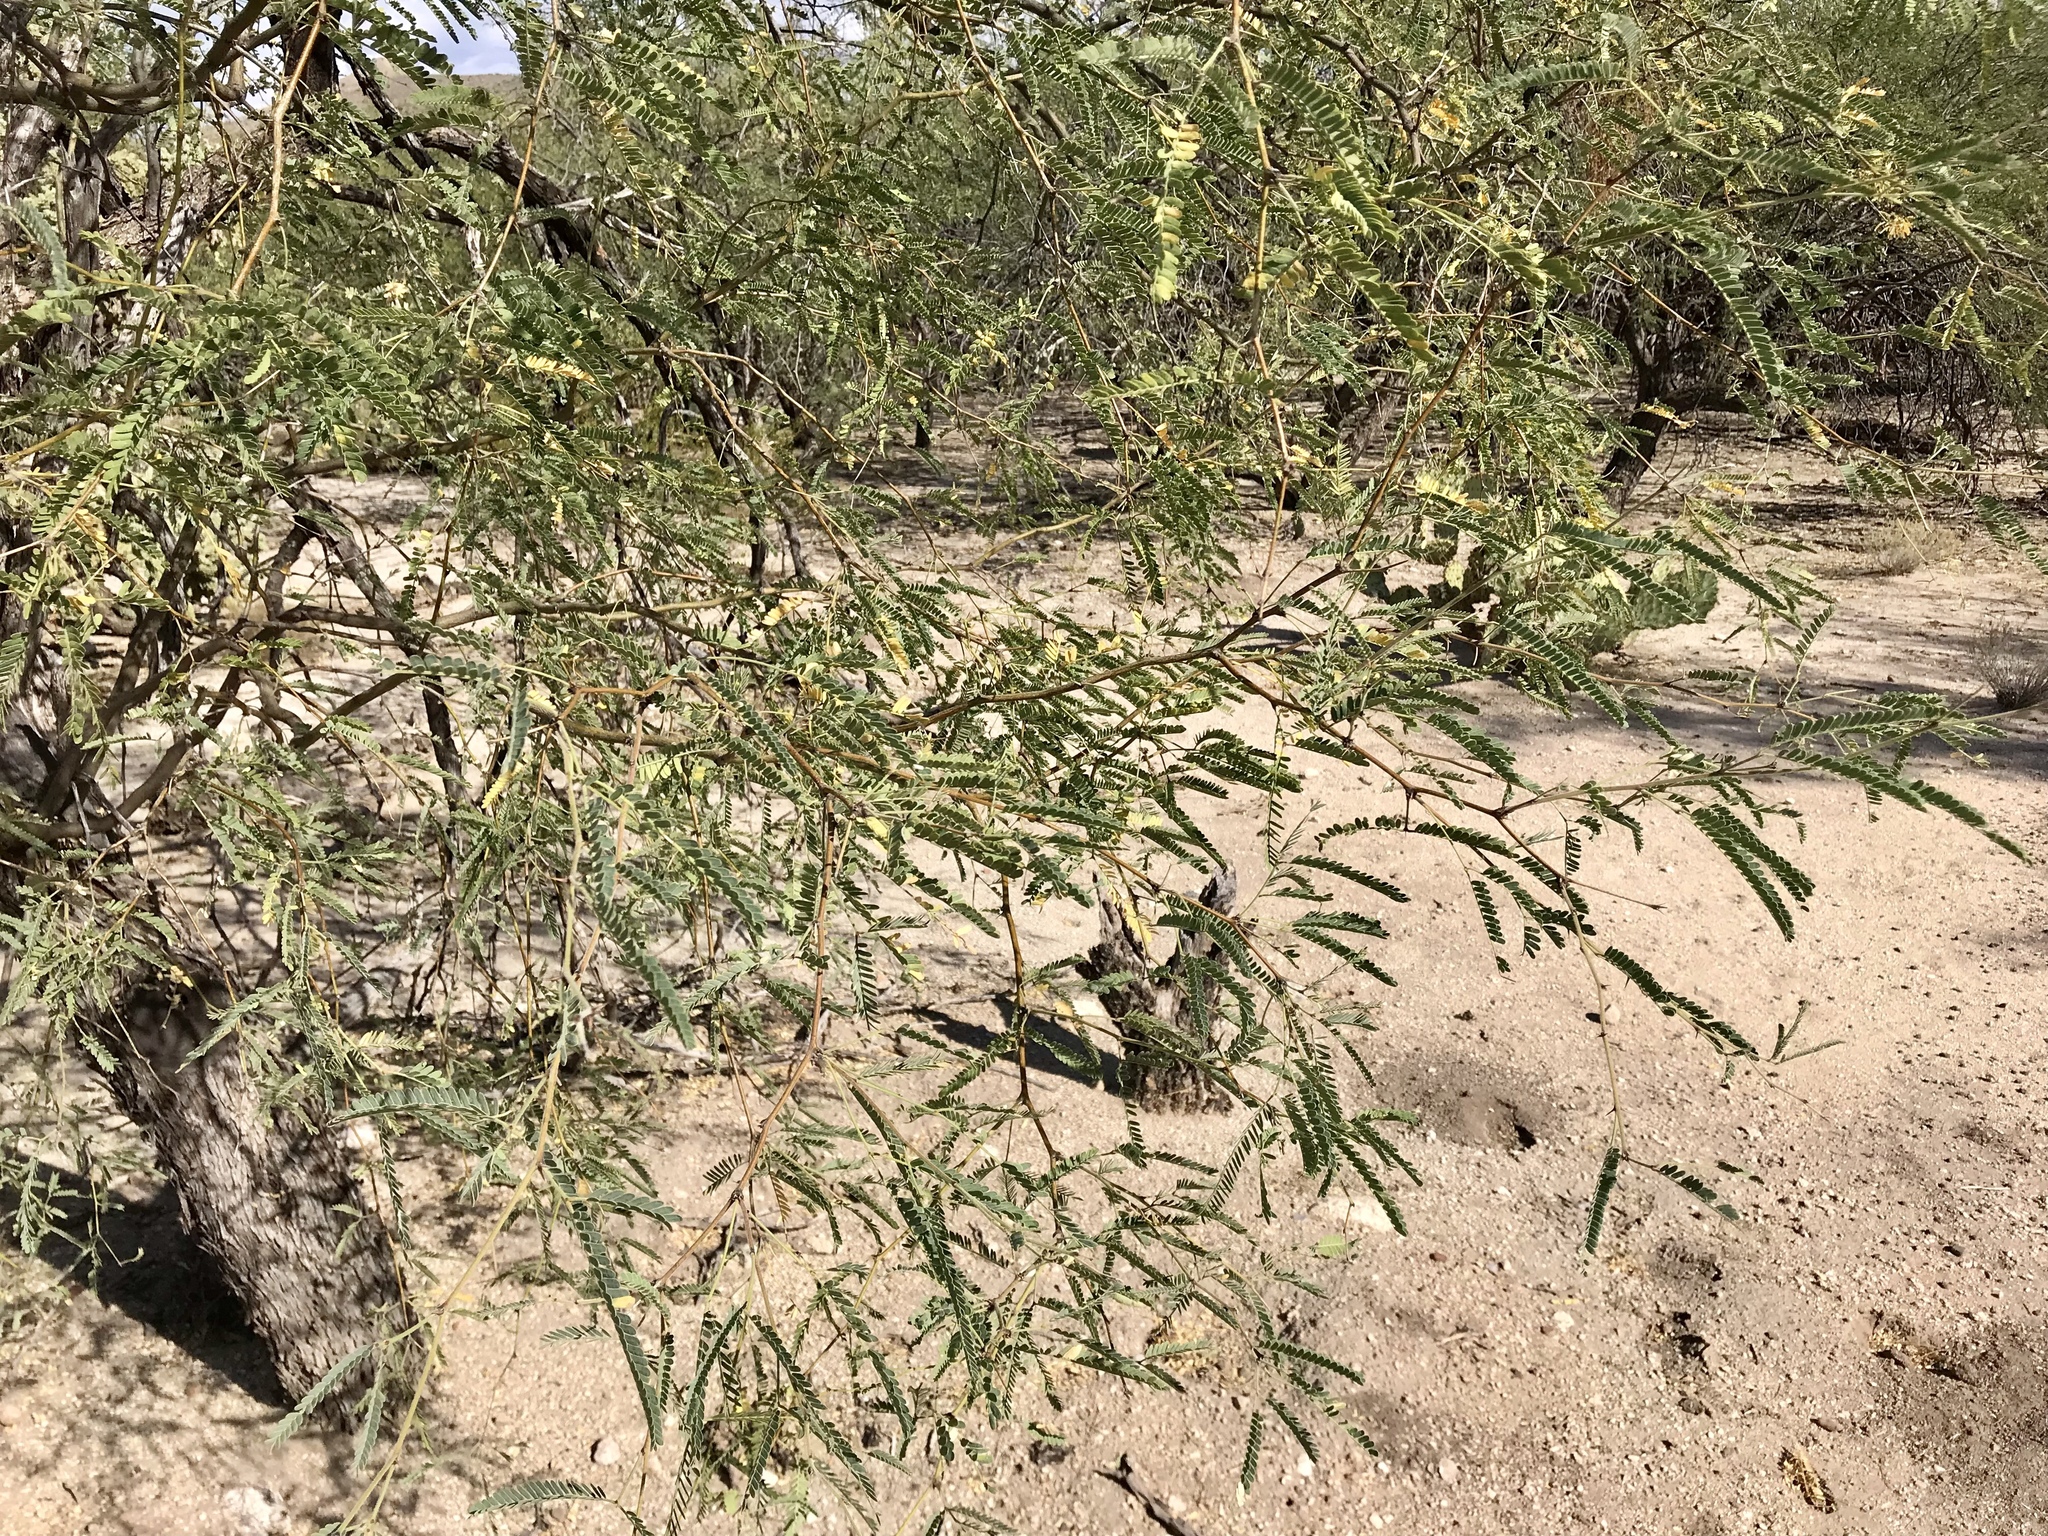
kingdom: Plantae
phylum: Tracheophyta
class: Magnoliopsida
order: Fabales
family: Fabaceae
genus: Prosopis
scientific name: Prosopis velutina
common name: Velvet mesquite
